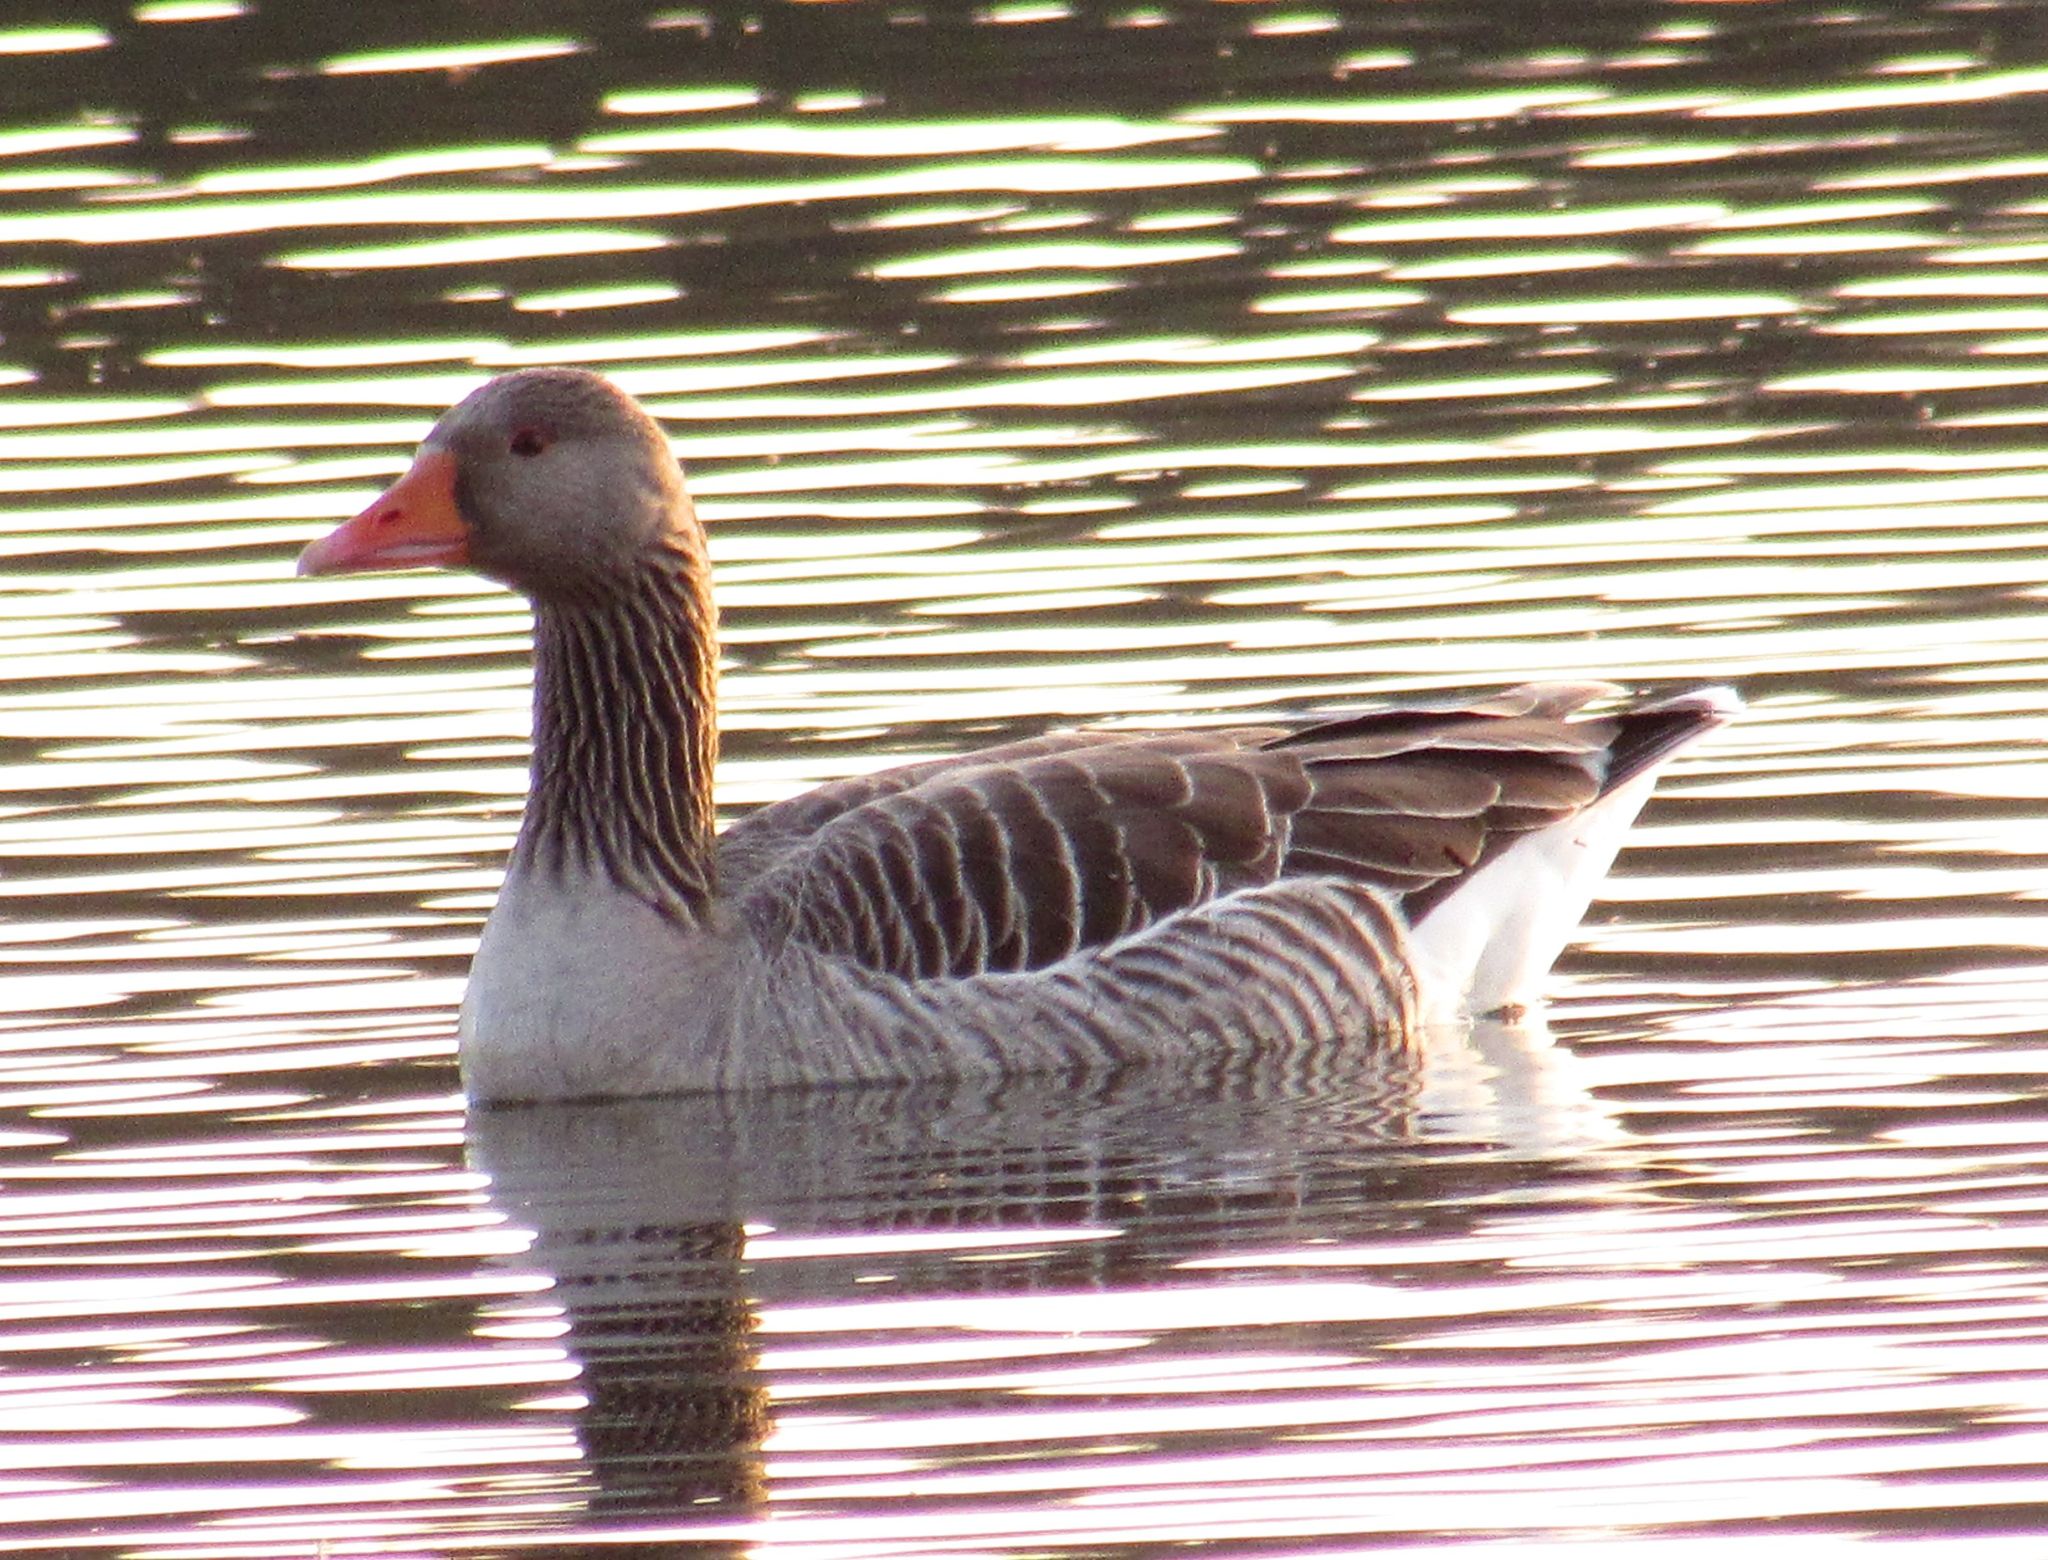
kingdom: Animalia
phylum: Chordata
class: Aves
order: Anseriformes
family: Anatidae
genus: Anser
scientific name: Anser anser
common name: Greylag goose
